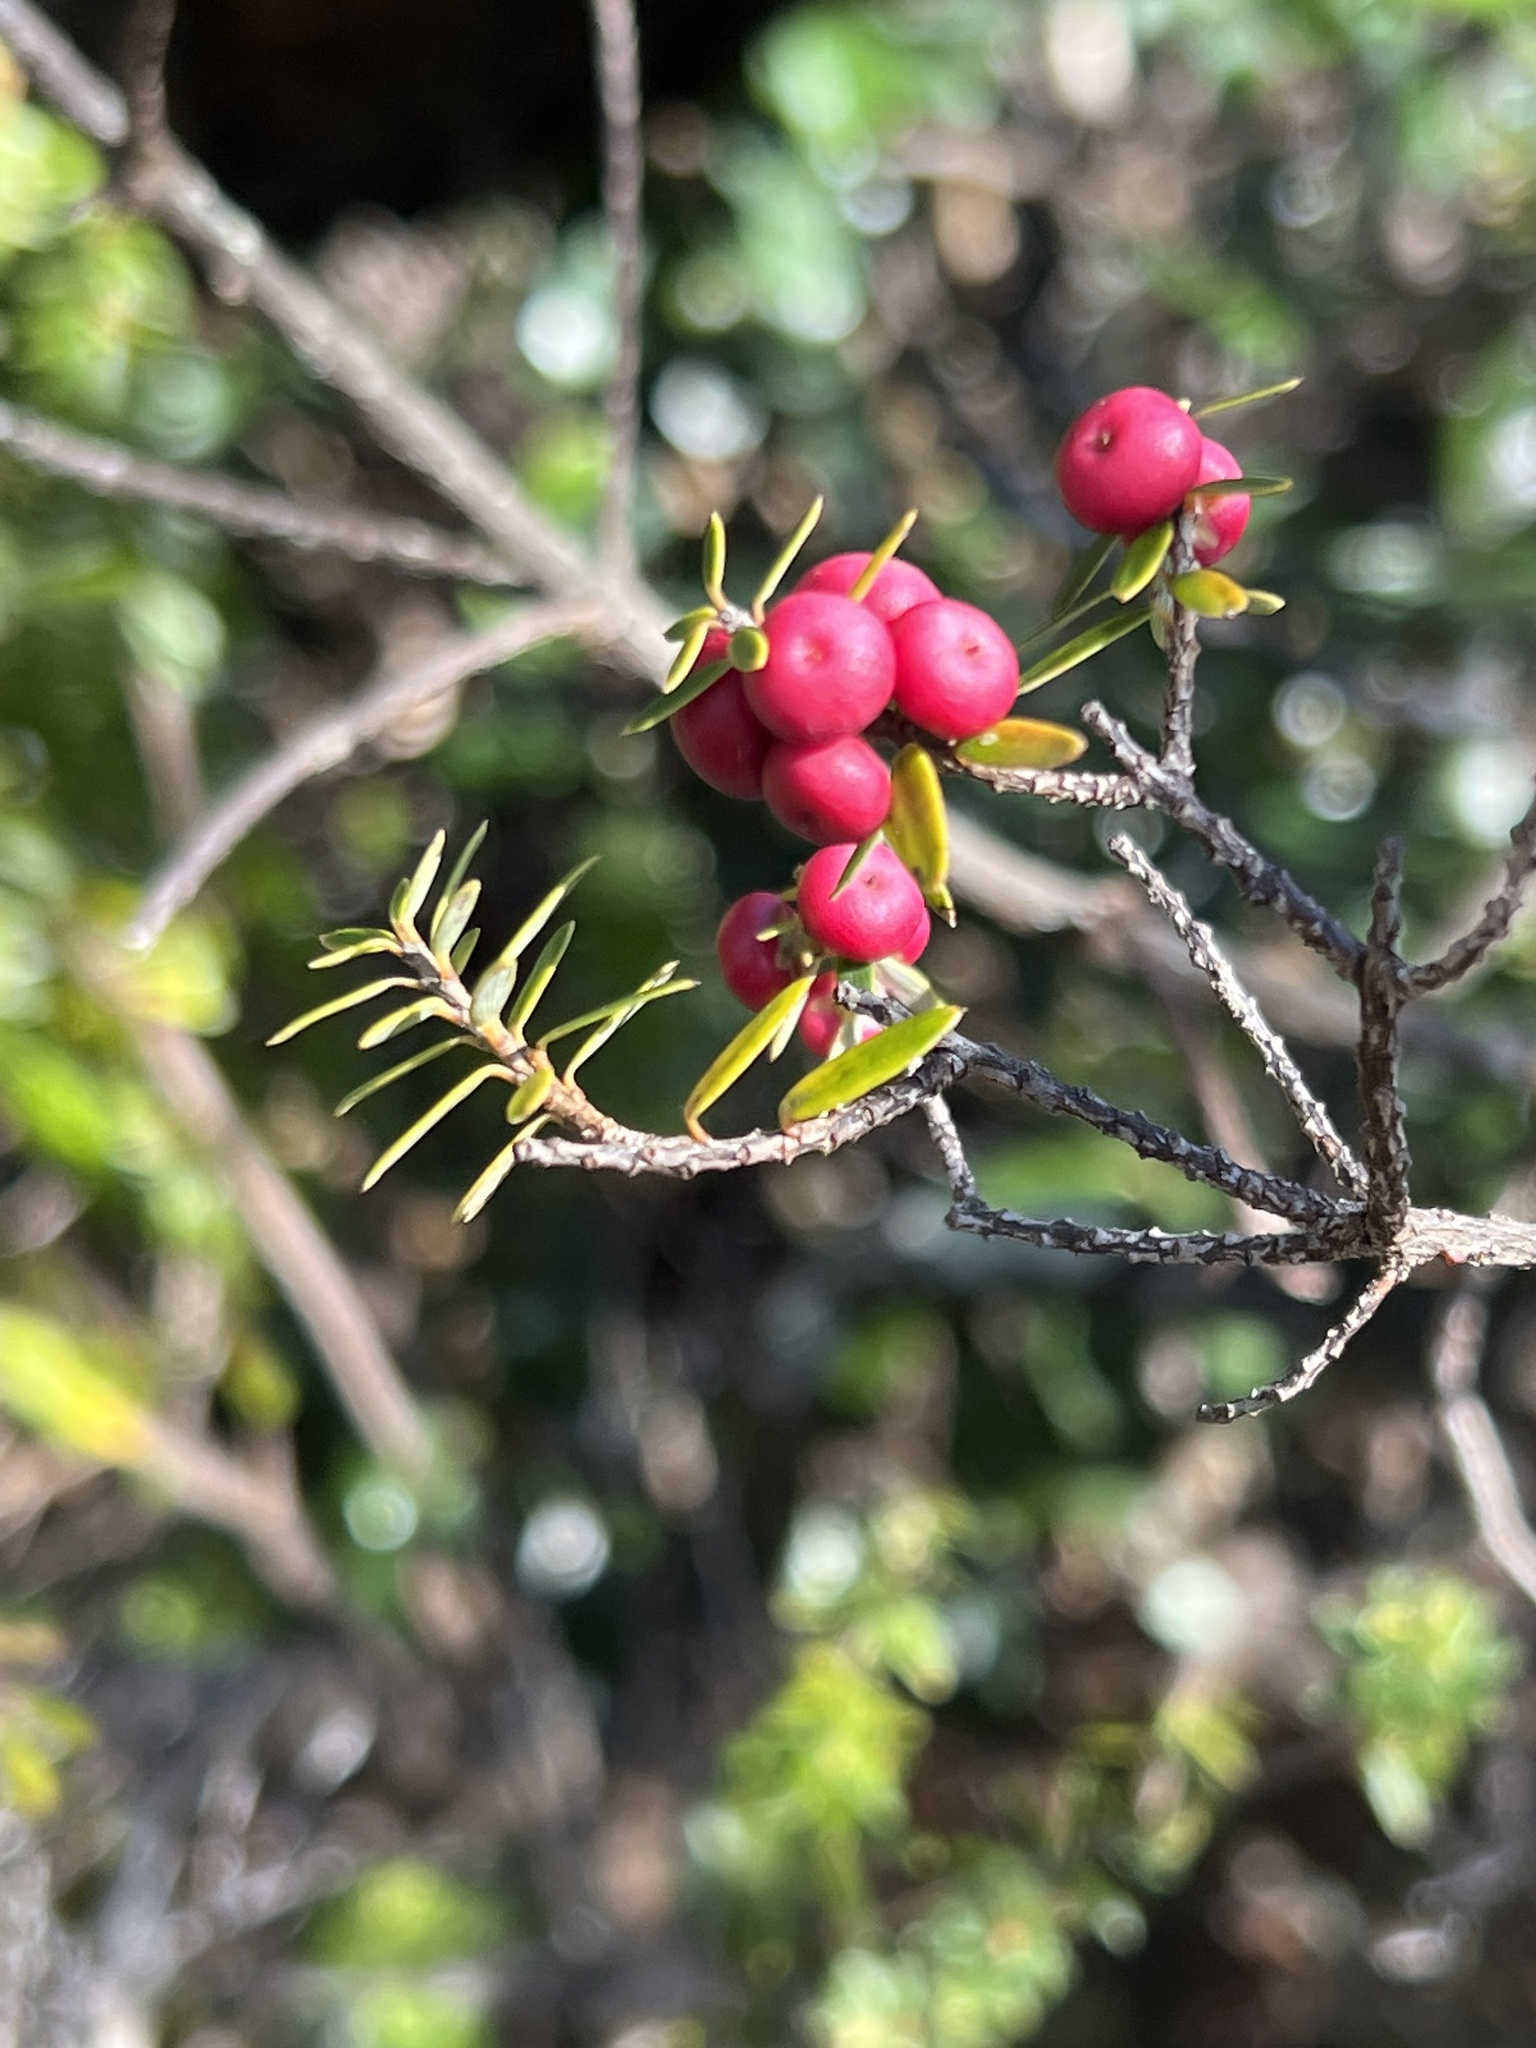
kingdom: Plantae
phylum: Tracheophyta
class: Magnoliopsida
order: Ericales
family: Ericaceae
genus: Leptecophylla
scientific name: Leptecophylla tameiameiae
